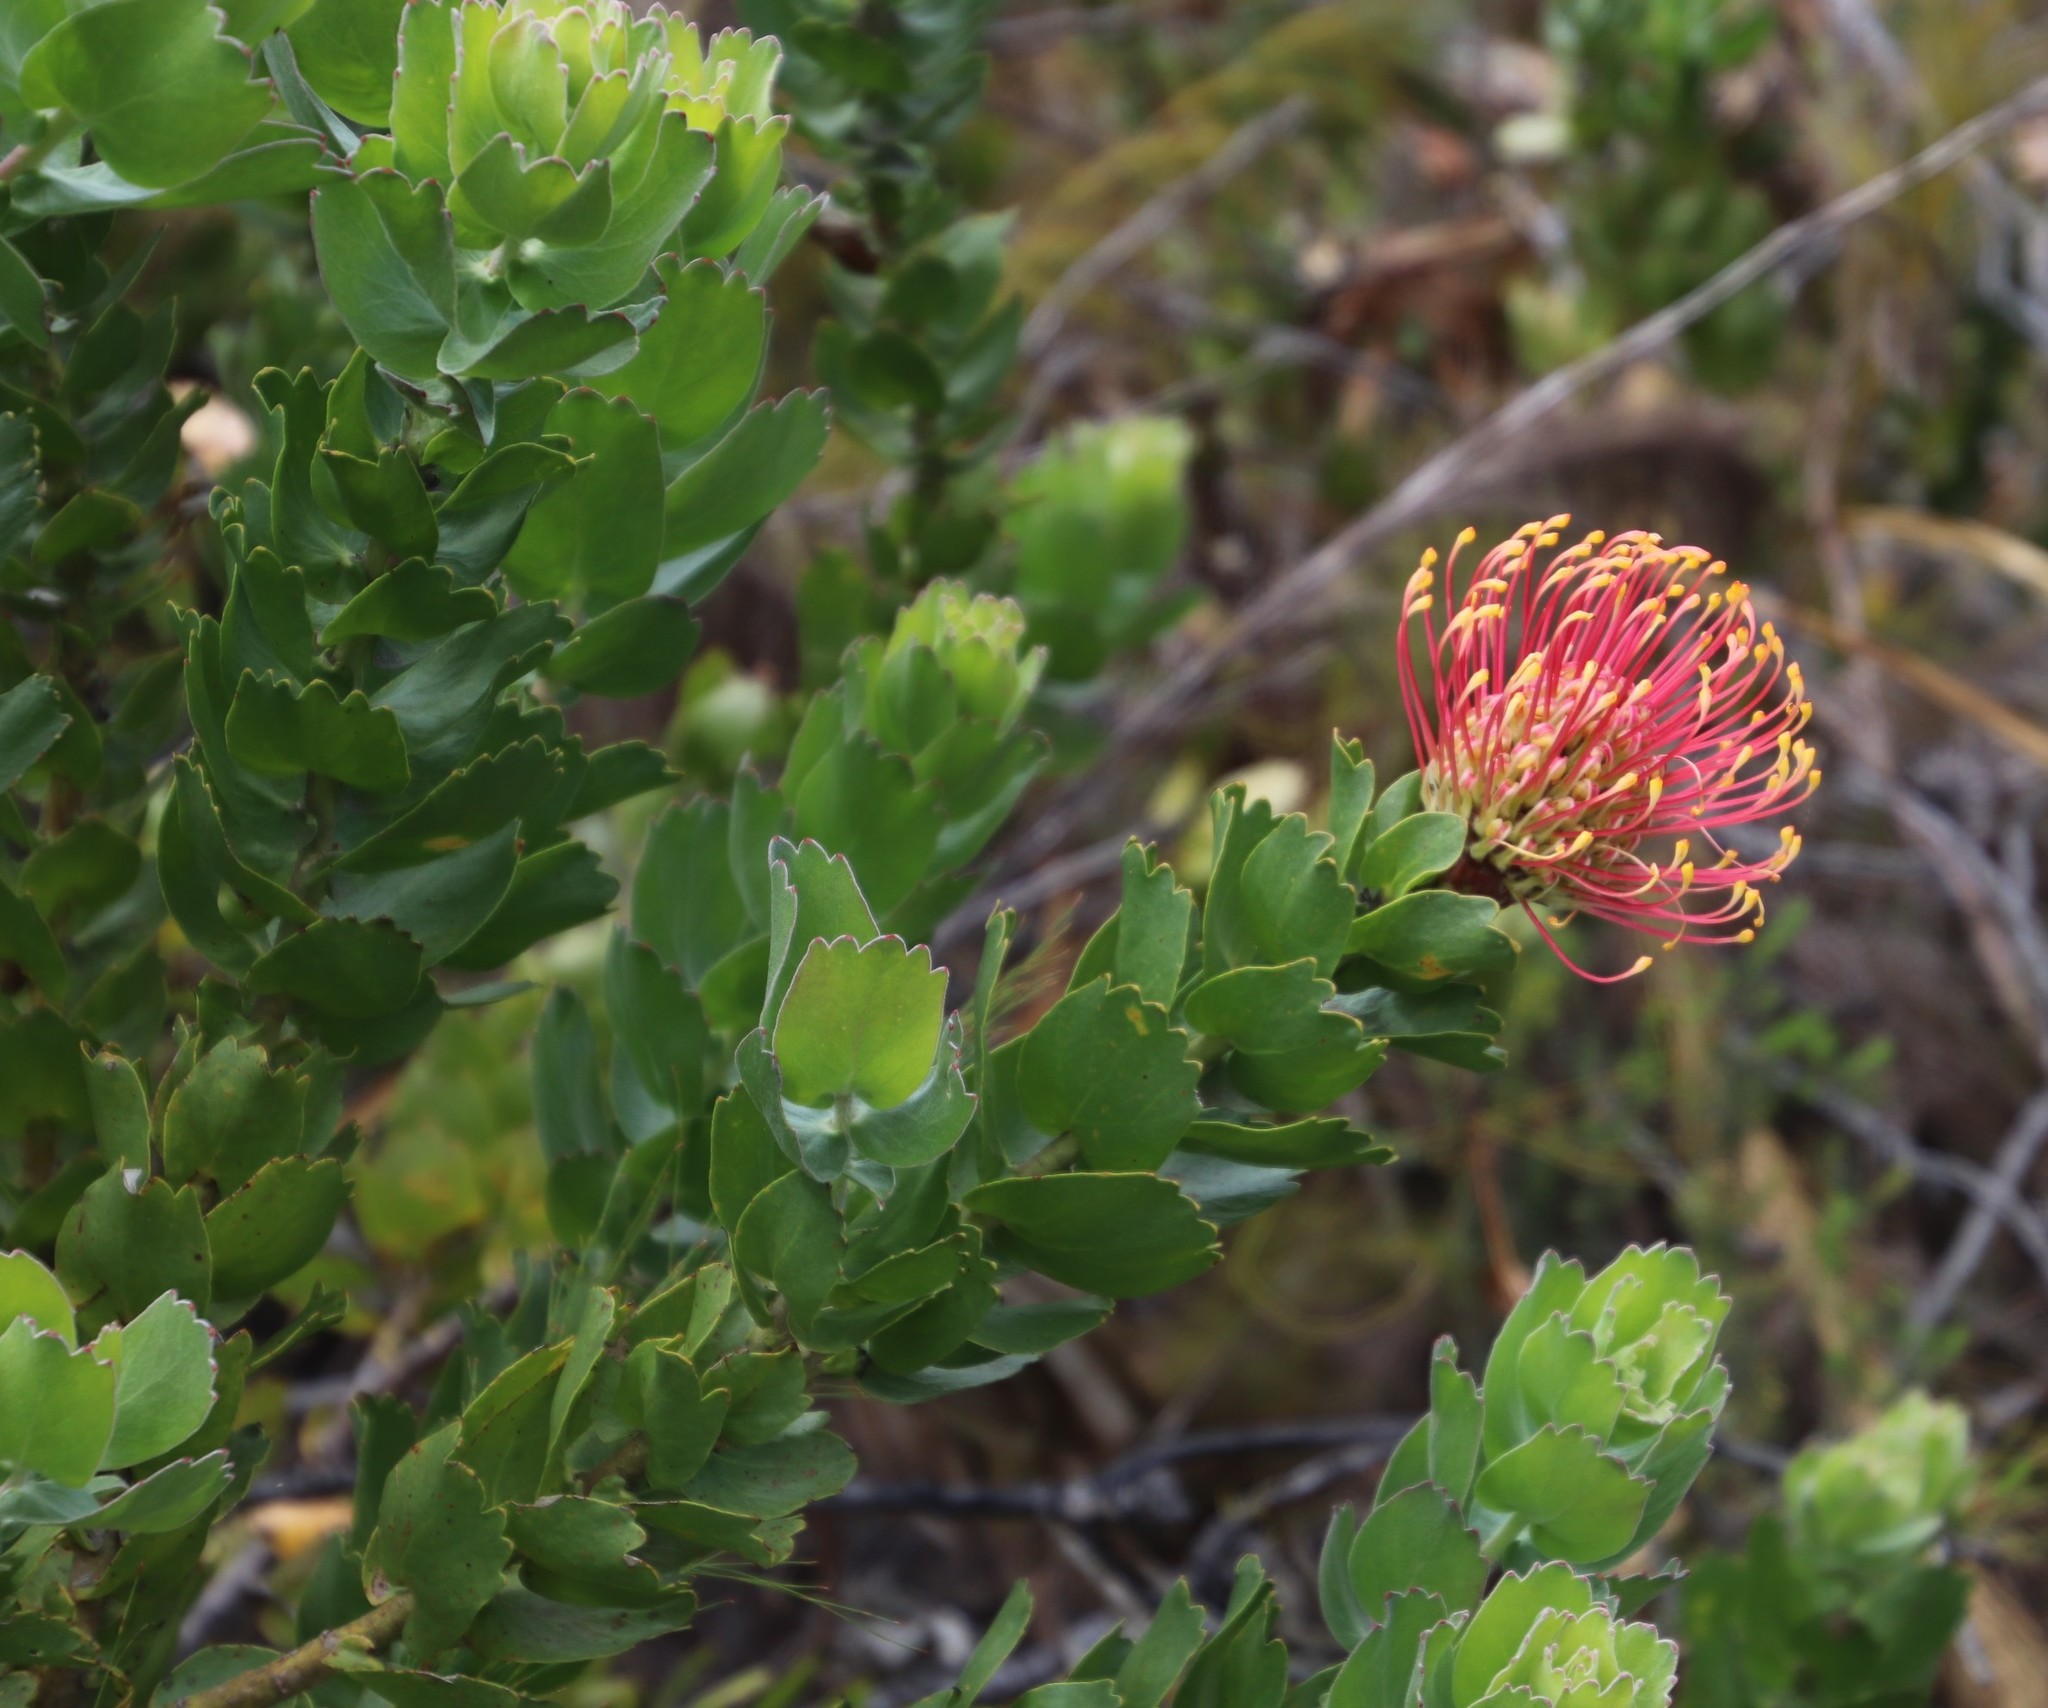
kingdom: Plantae
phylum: Tracheophyta
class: Magnoliopsida
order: Proteales
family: Proteaceae
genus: Leucospermum
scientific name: Leucospermum patersonii
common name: False tree pincushion
